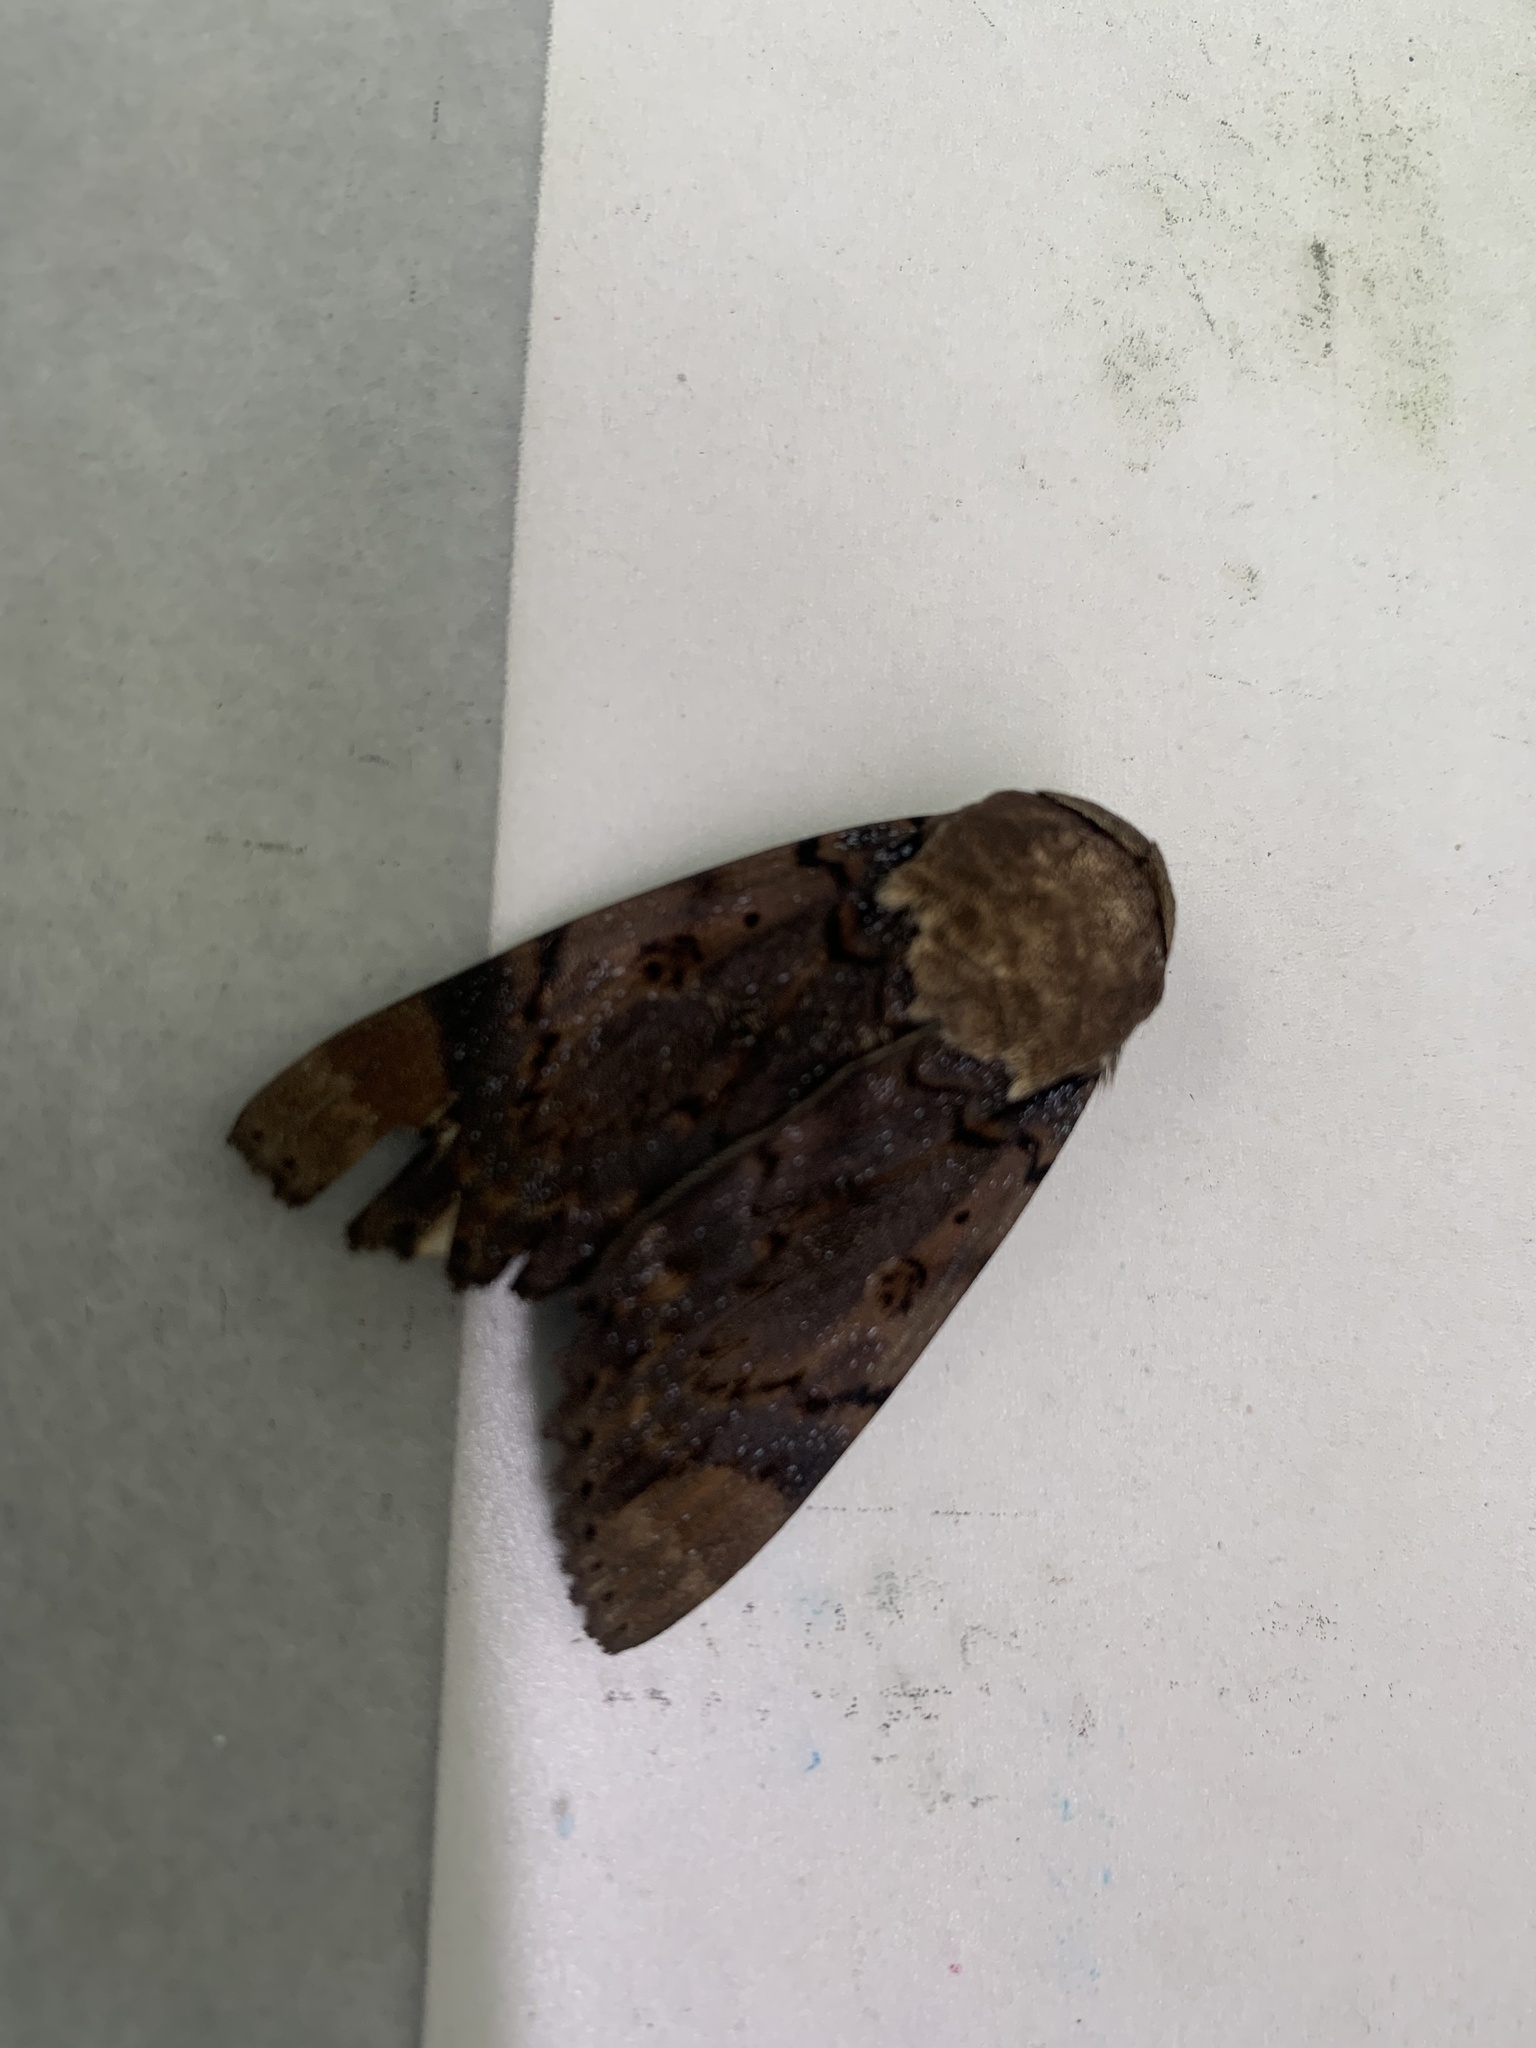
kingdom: Animalia
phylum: Arthropoda
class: Insecta
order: Lepidoptera
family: Erebidae
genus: Arcte
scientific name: Arcte coerula
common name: Ramie moth
